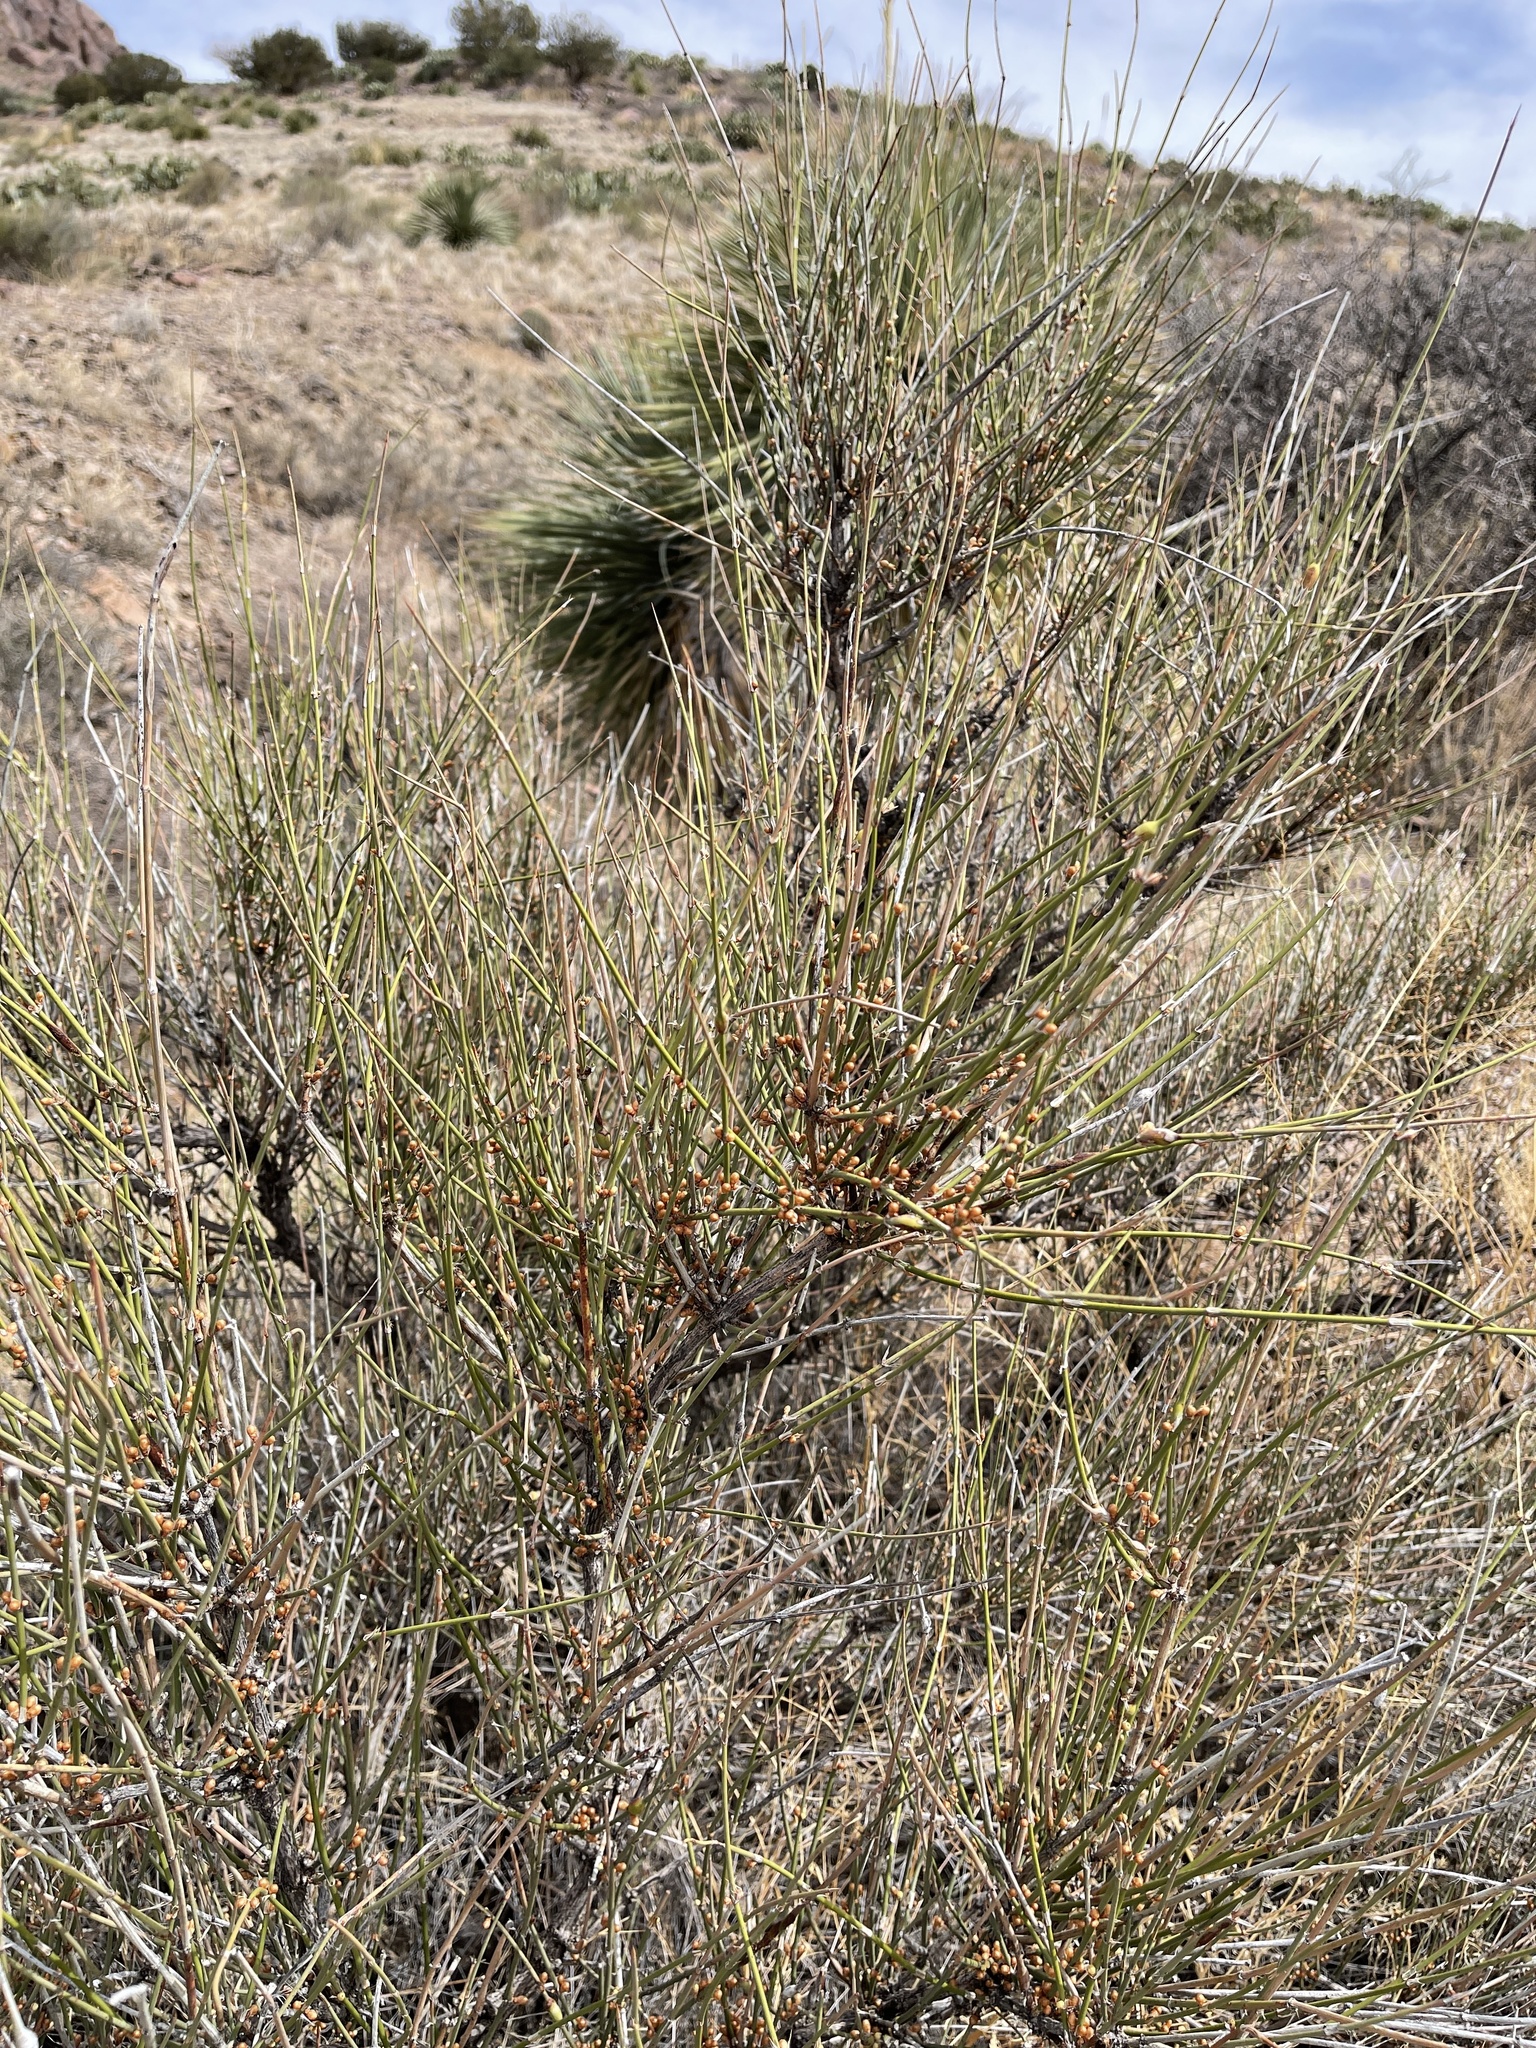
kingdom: Plantae
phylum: Tracheophyta
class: Gnetopsida
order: Ephedrales
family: Ephedraceae
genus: Ephedra
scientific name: Ephedra trifurca
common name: Mexican-tea
